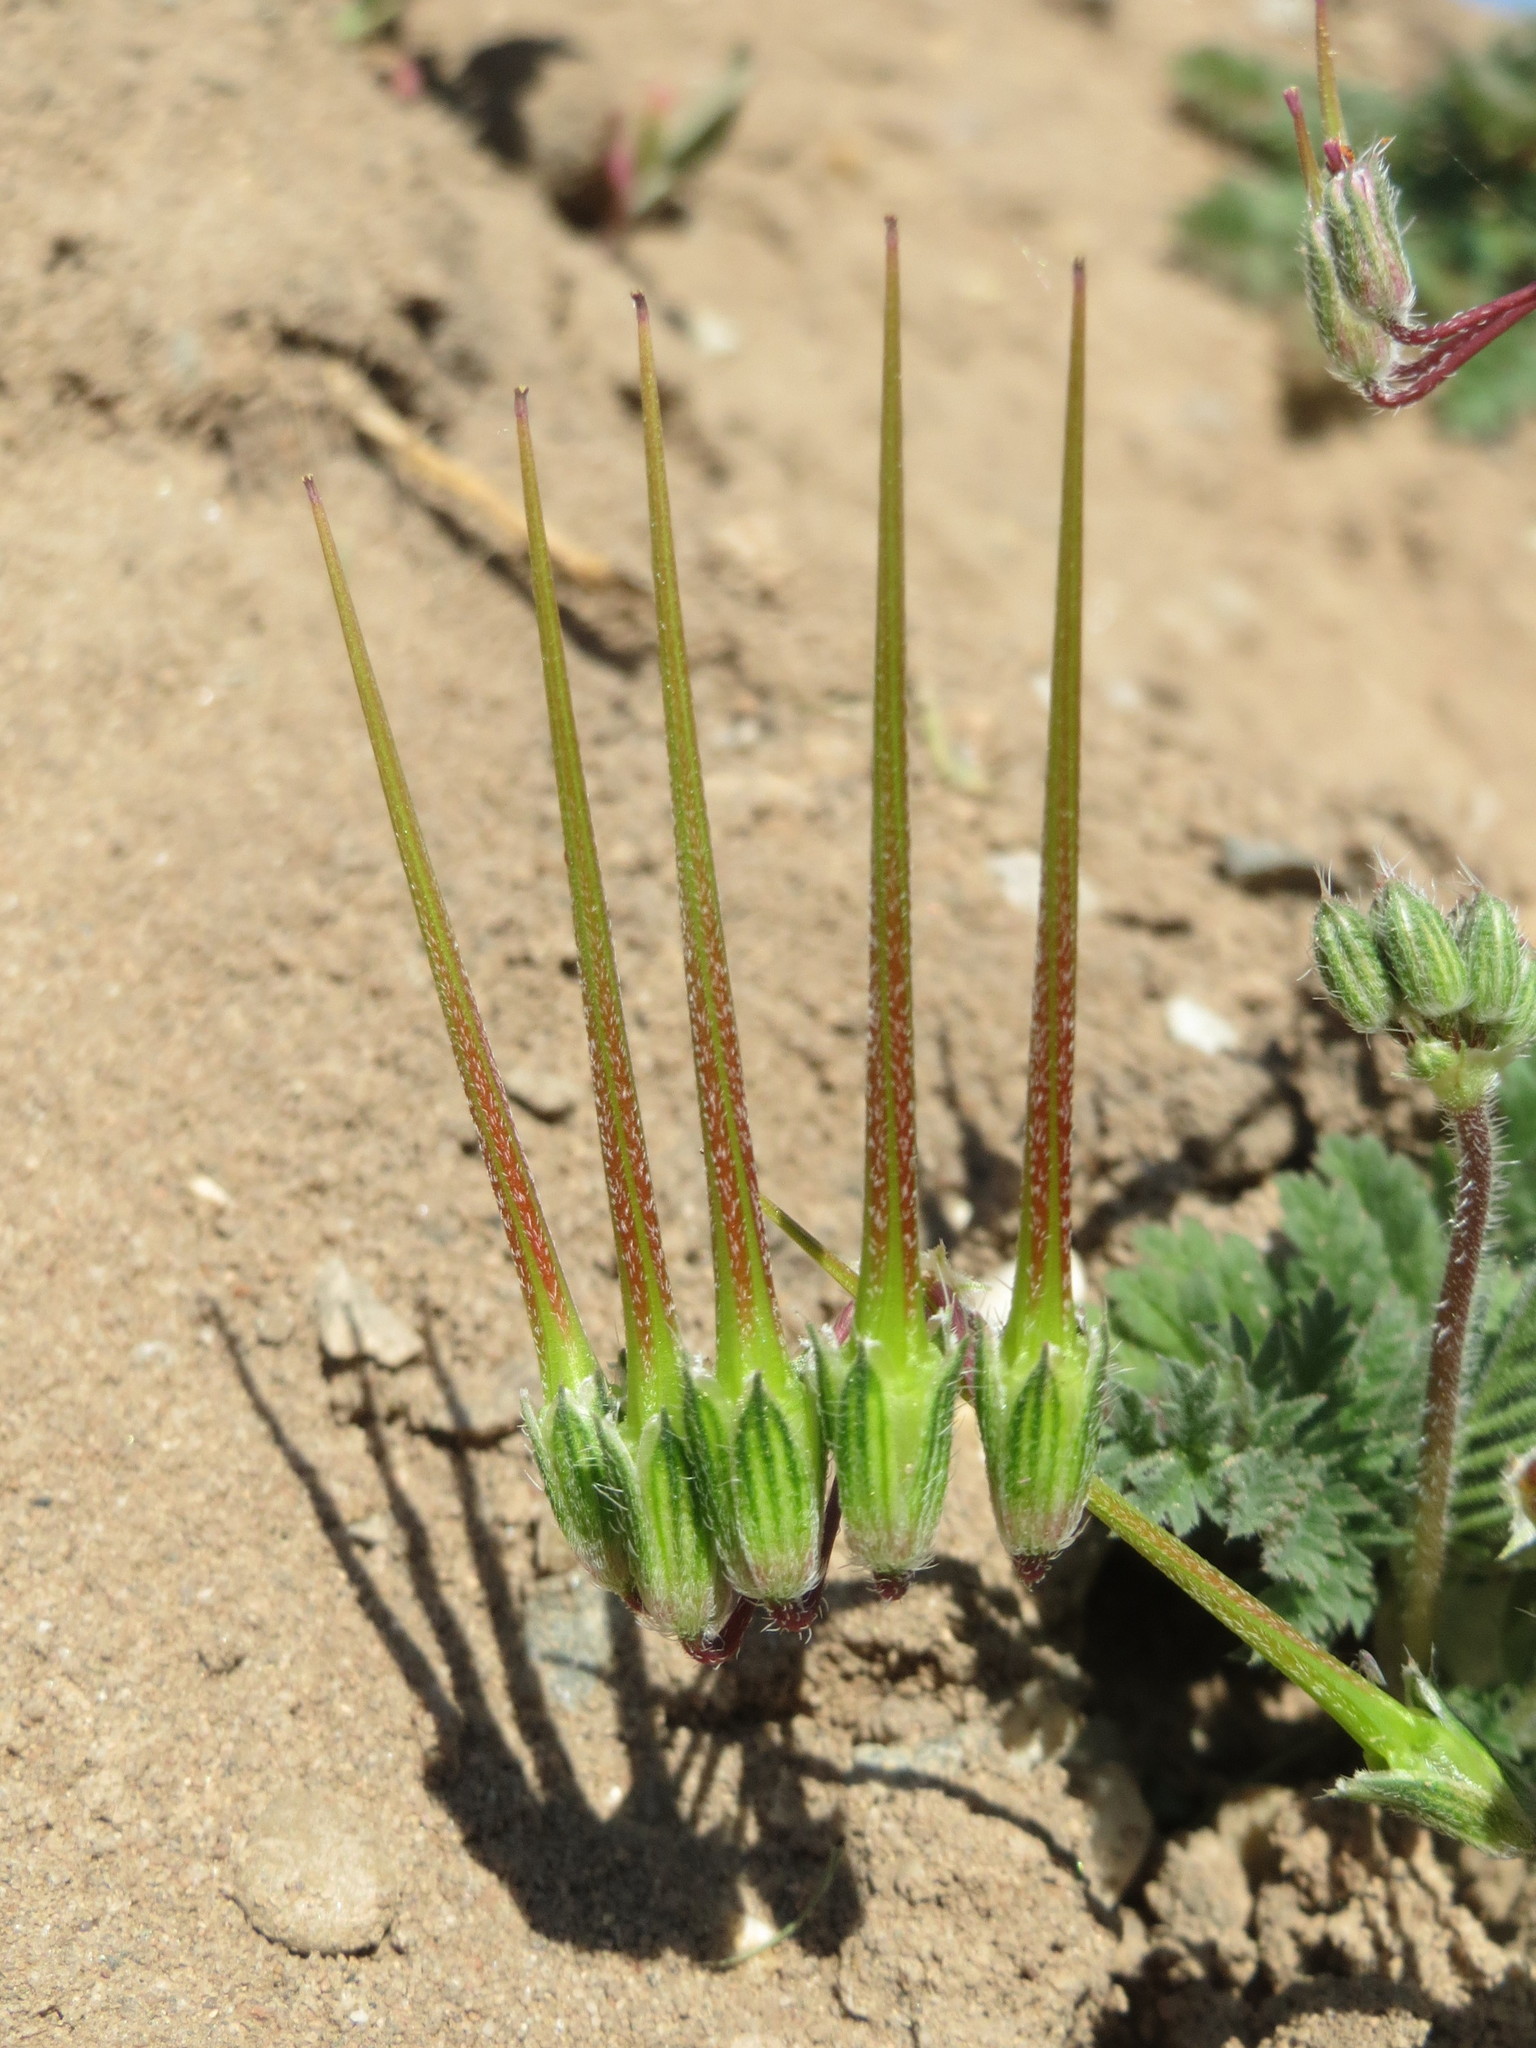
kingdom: Plantae
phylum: Tracheophyta
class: Magnoliopsida
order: Geraniales
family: Geraniaceae
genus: Erodium
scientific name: Erodium cicutarium
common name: Common stork's-bill
